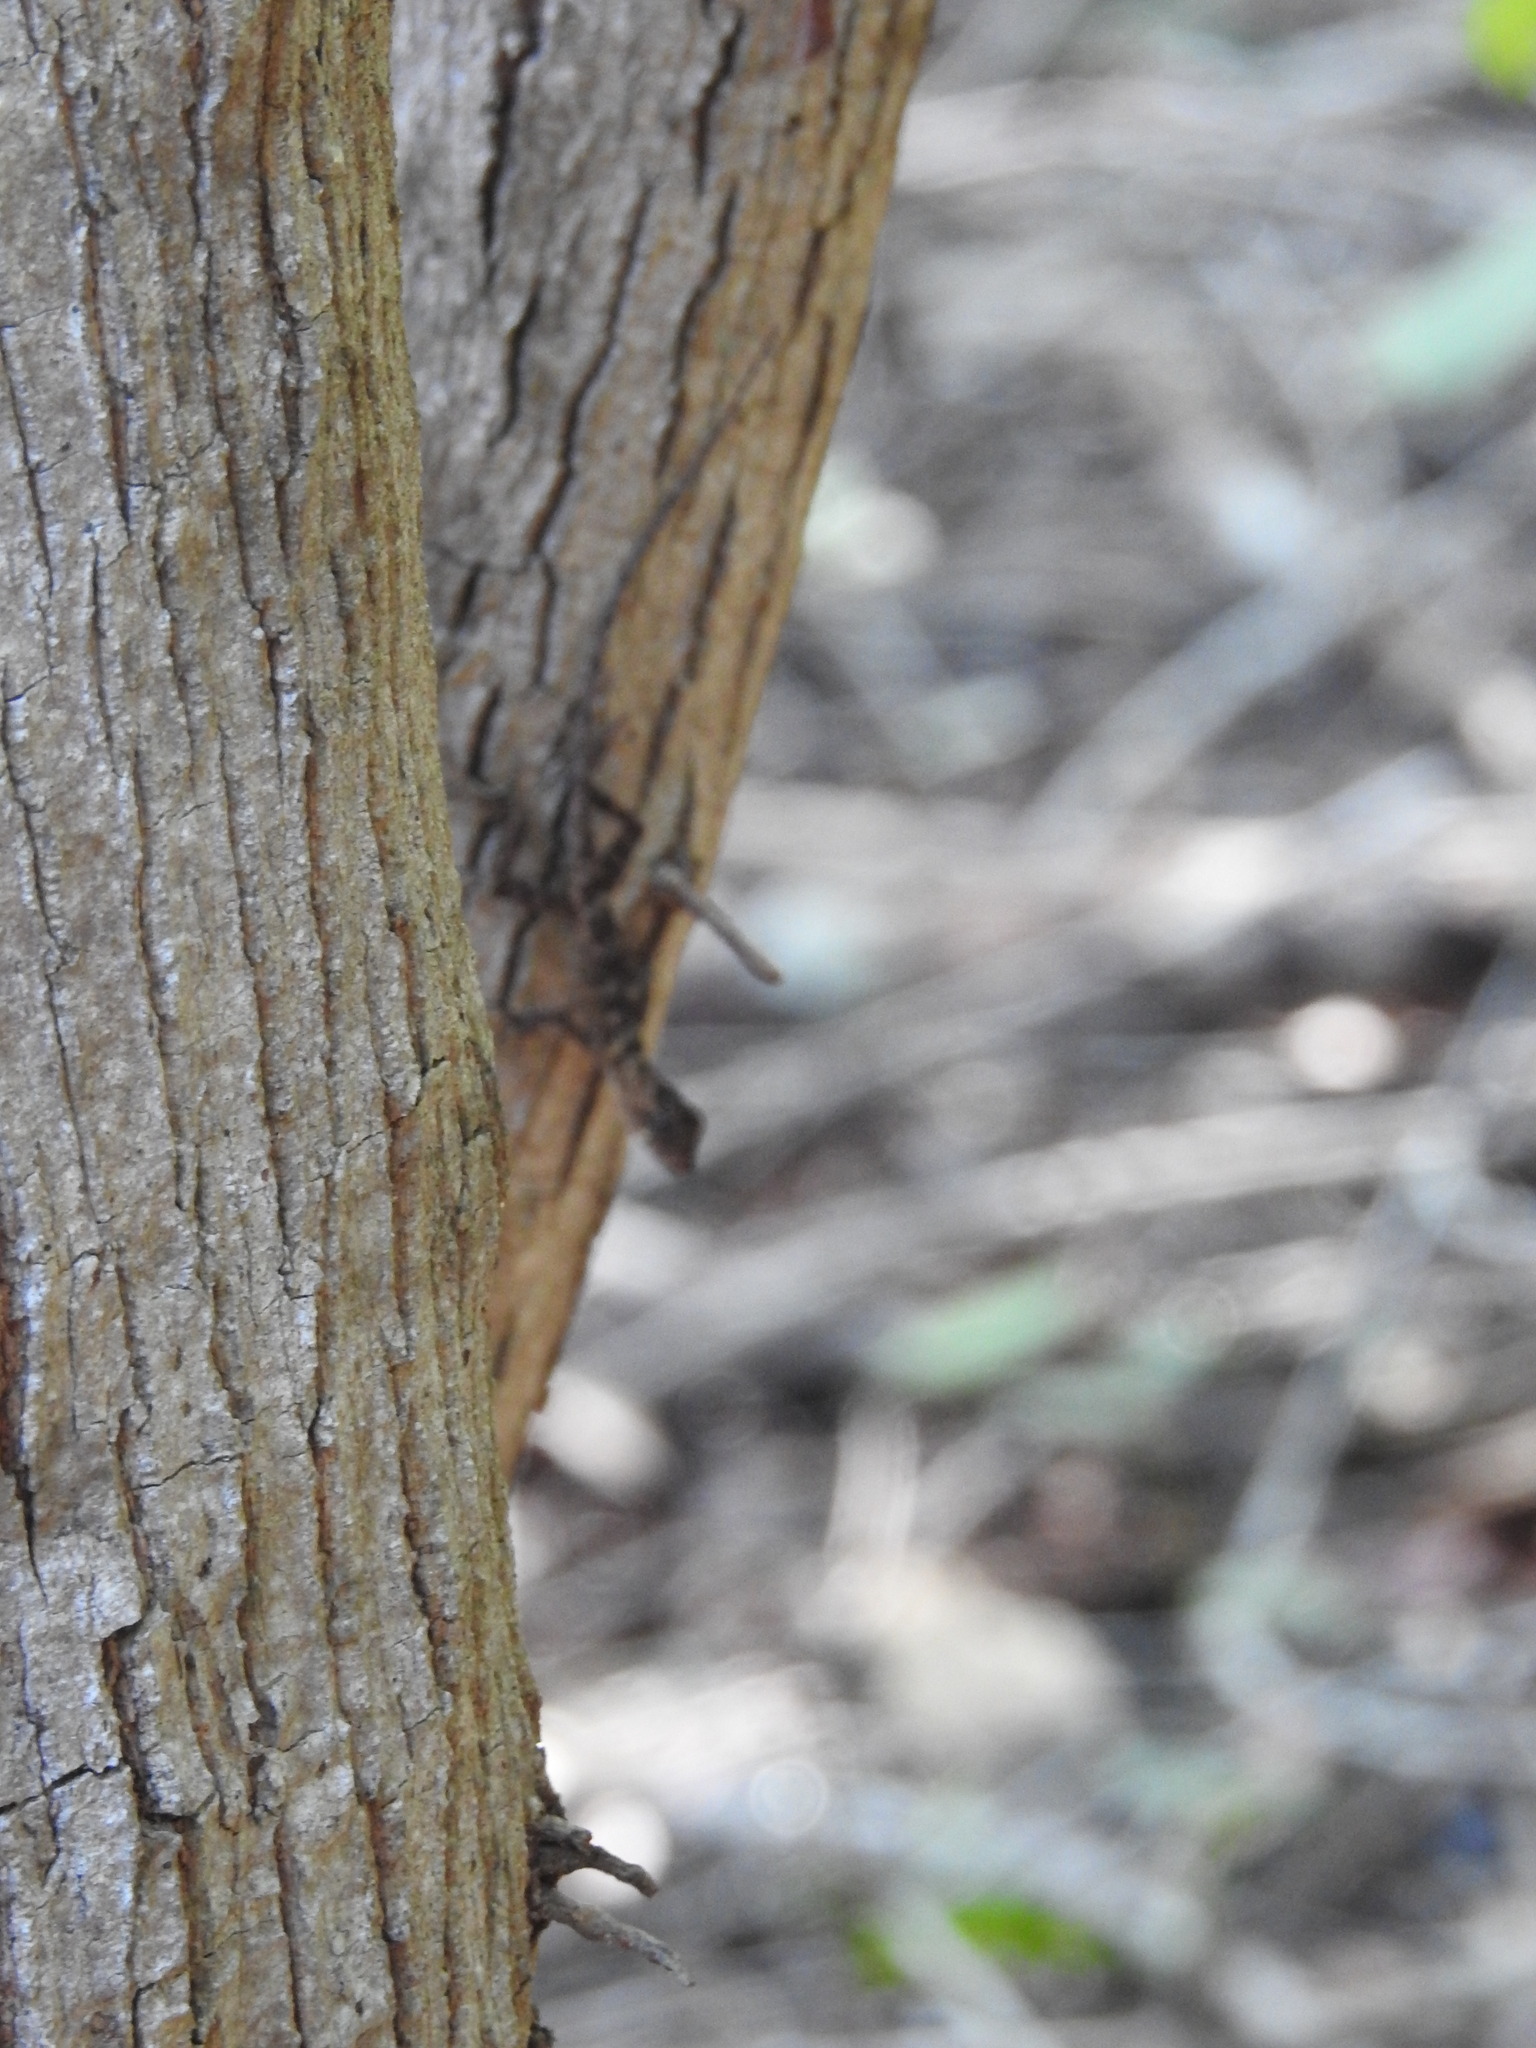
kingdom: Animalia
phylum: Chordata
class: Squamata
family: Dactyloidae
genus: Anolis
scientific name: Anolis rodriguezii
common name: Middle american smooth anole
